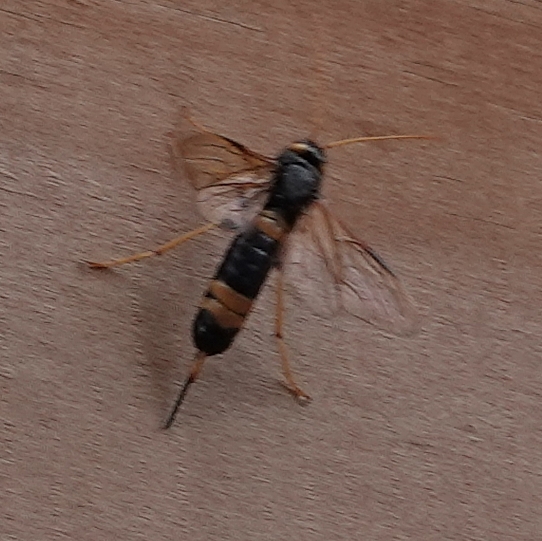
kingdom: Animalia
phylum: Arthropoda
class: Insecta
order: Hymenoptera
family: Siricidae
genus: Urocerus
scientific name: Urocerus flavicornis
